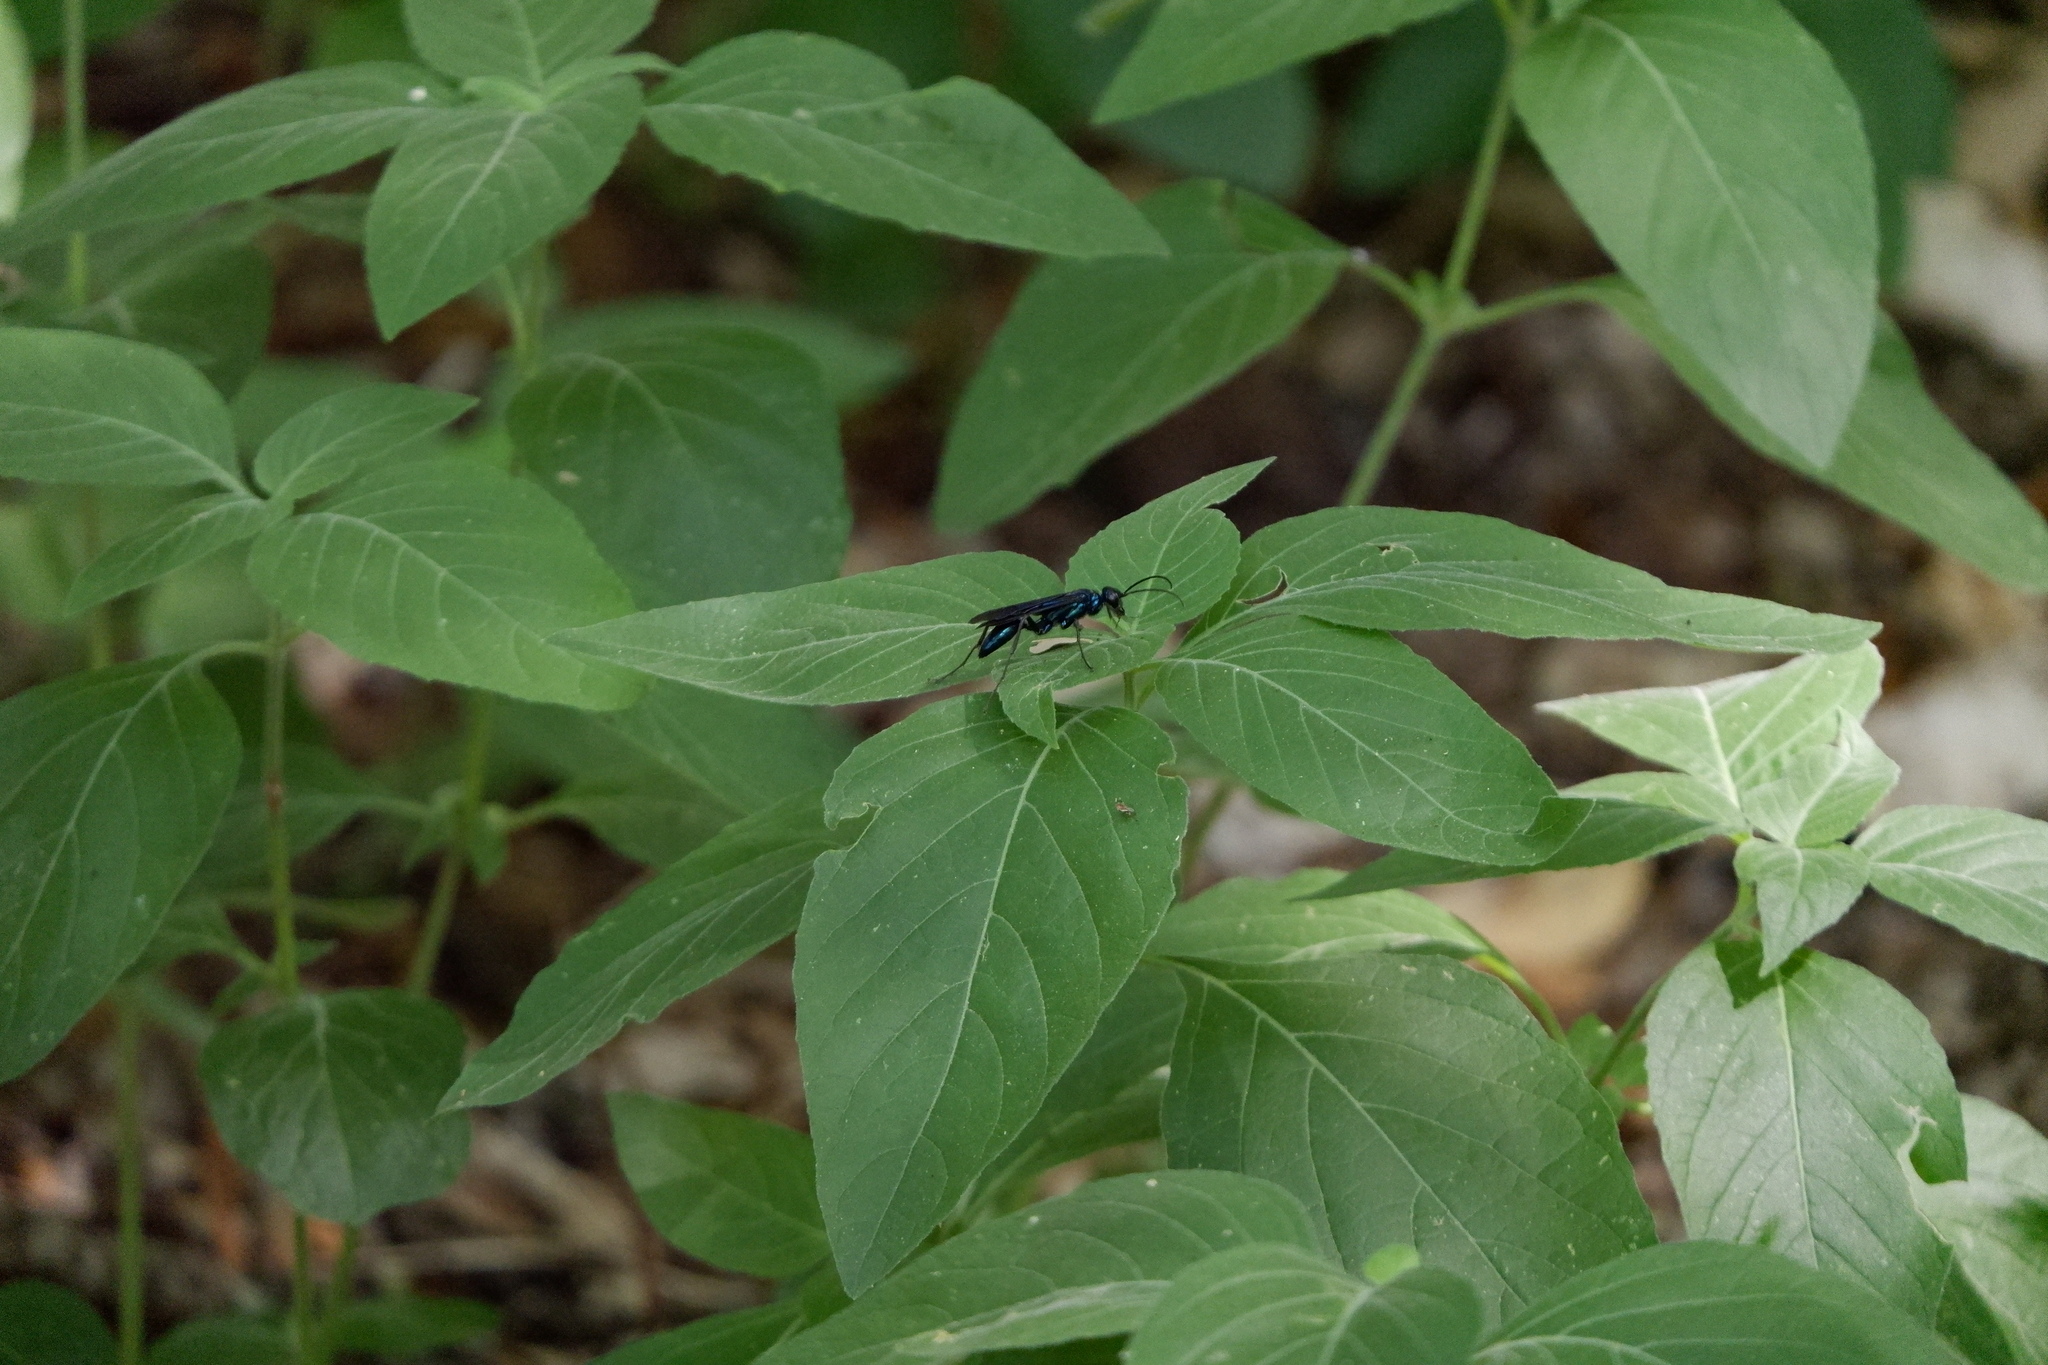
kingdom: Animalia
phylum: Arthropoda
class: Insecta
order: Hymenoptera
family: Sphecidae
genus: Chalybion
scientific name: Chalybion californicum
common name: Mud dauber
